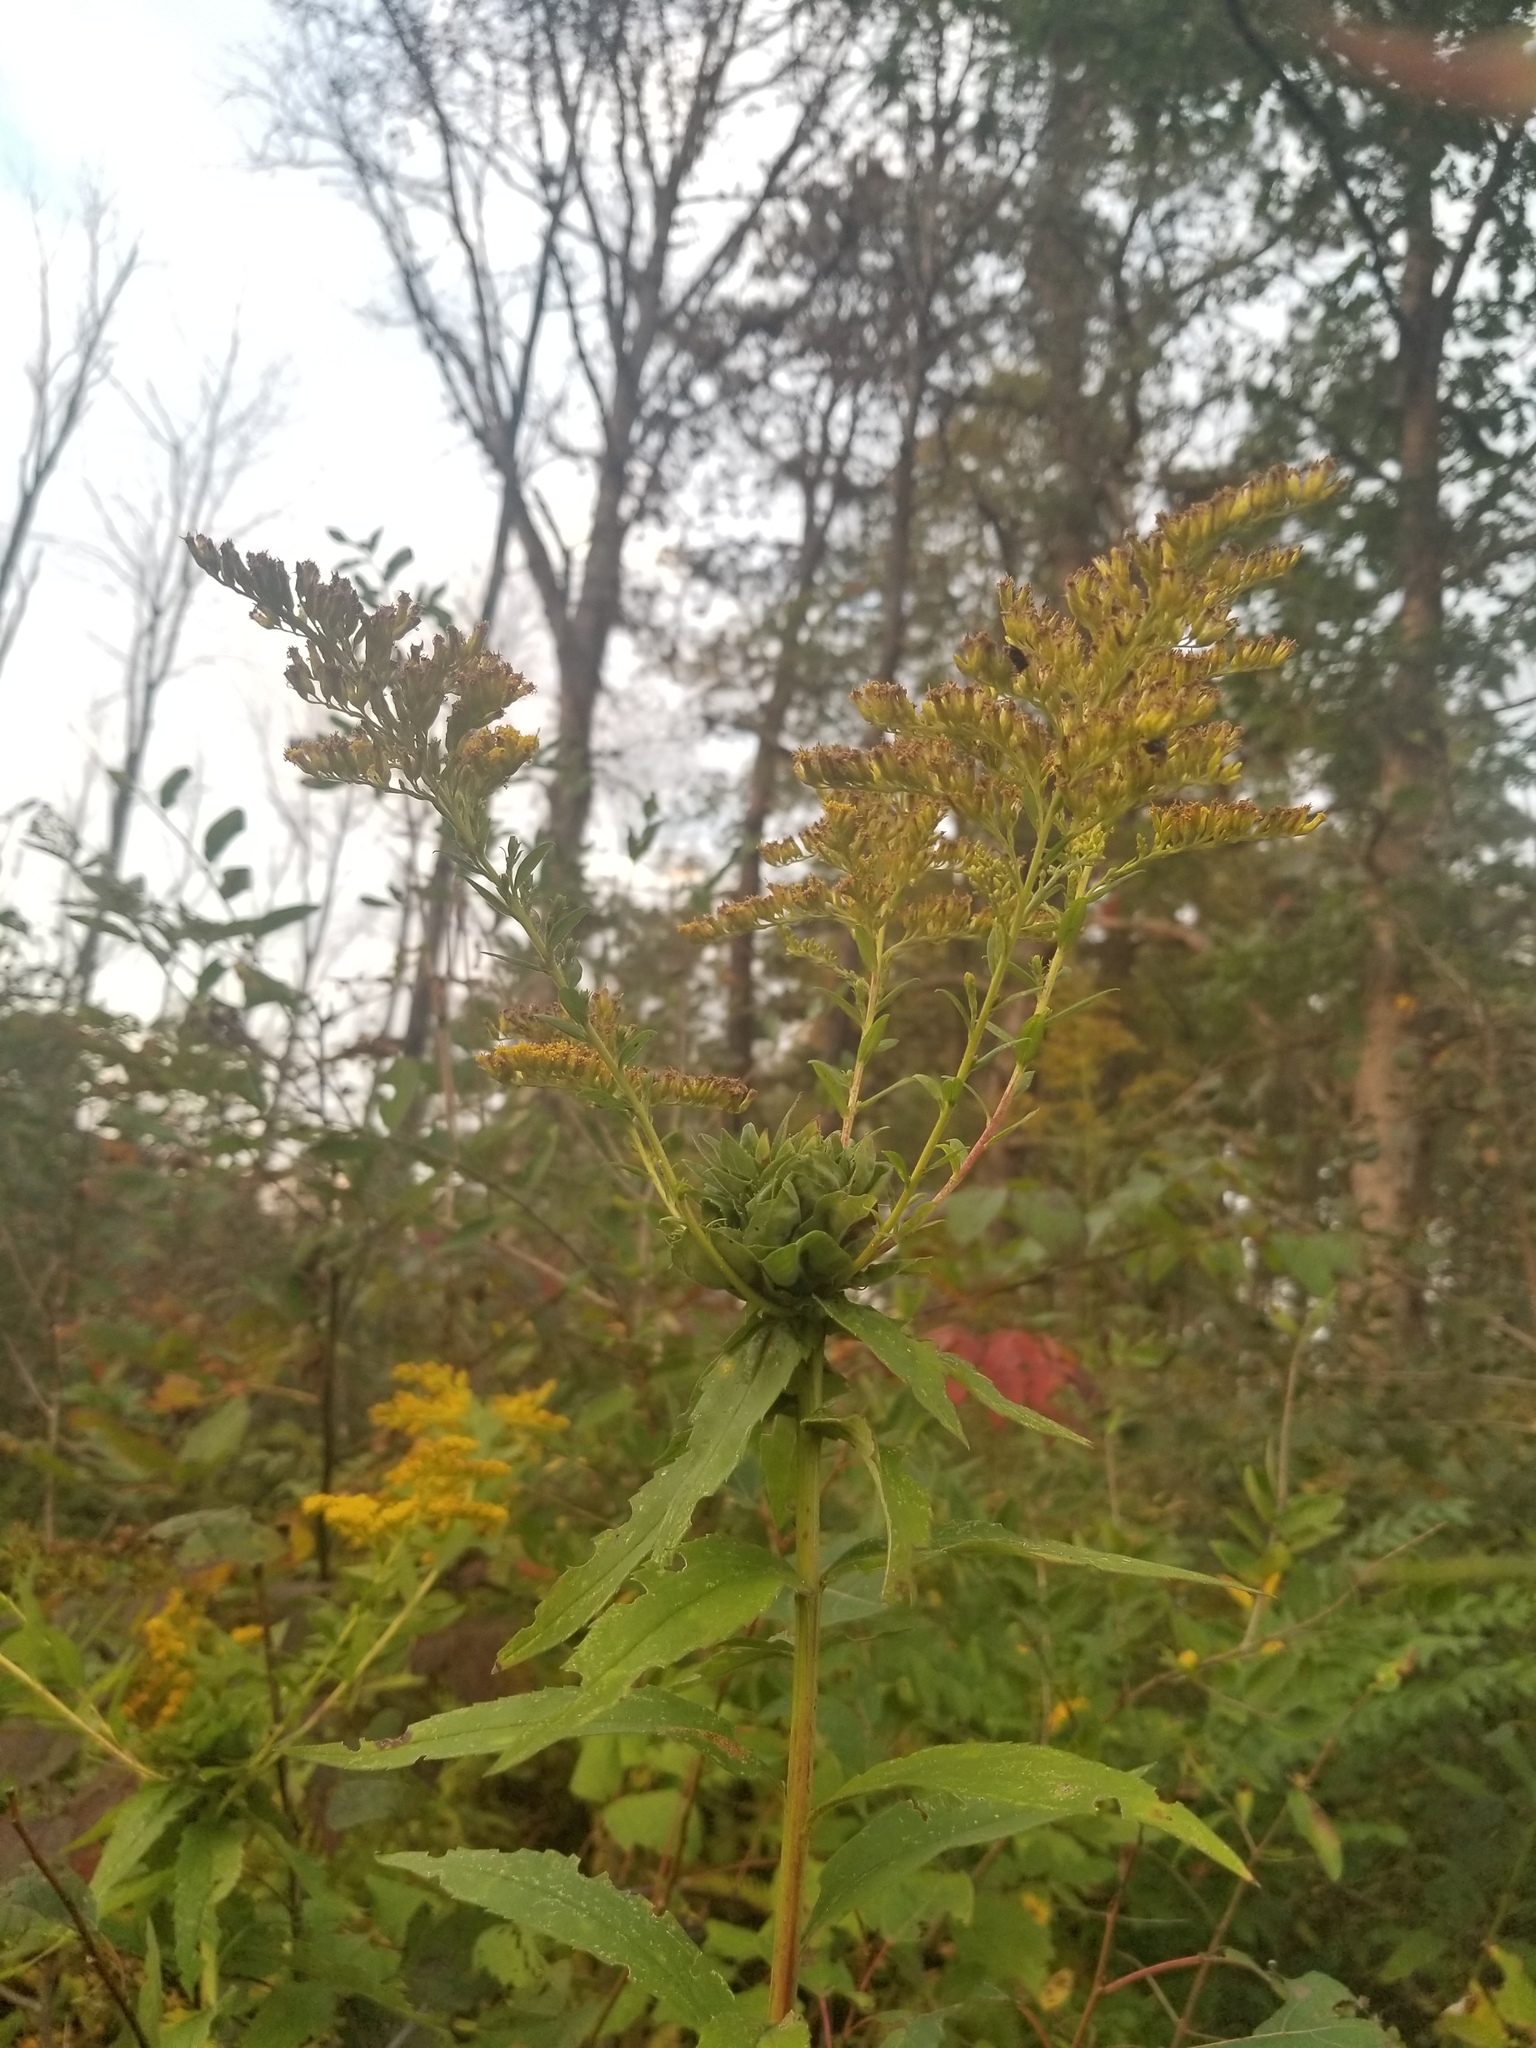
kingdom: Animalia
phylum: Arthropoda
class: Insecta
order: Diptera
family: Cecidomyiidae
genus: Rhopalomyia
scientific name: Rhopalomyia solidaginis
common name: Goldenrod bunch gall midge
